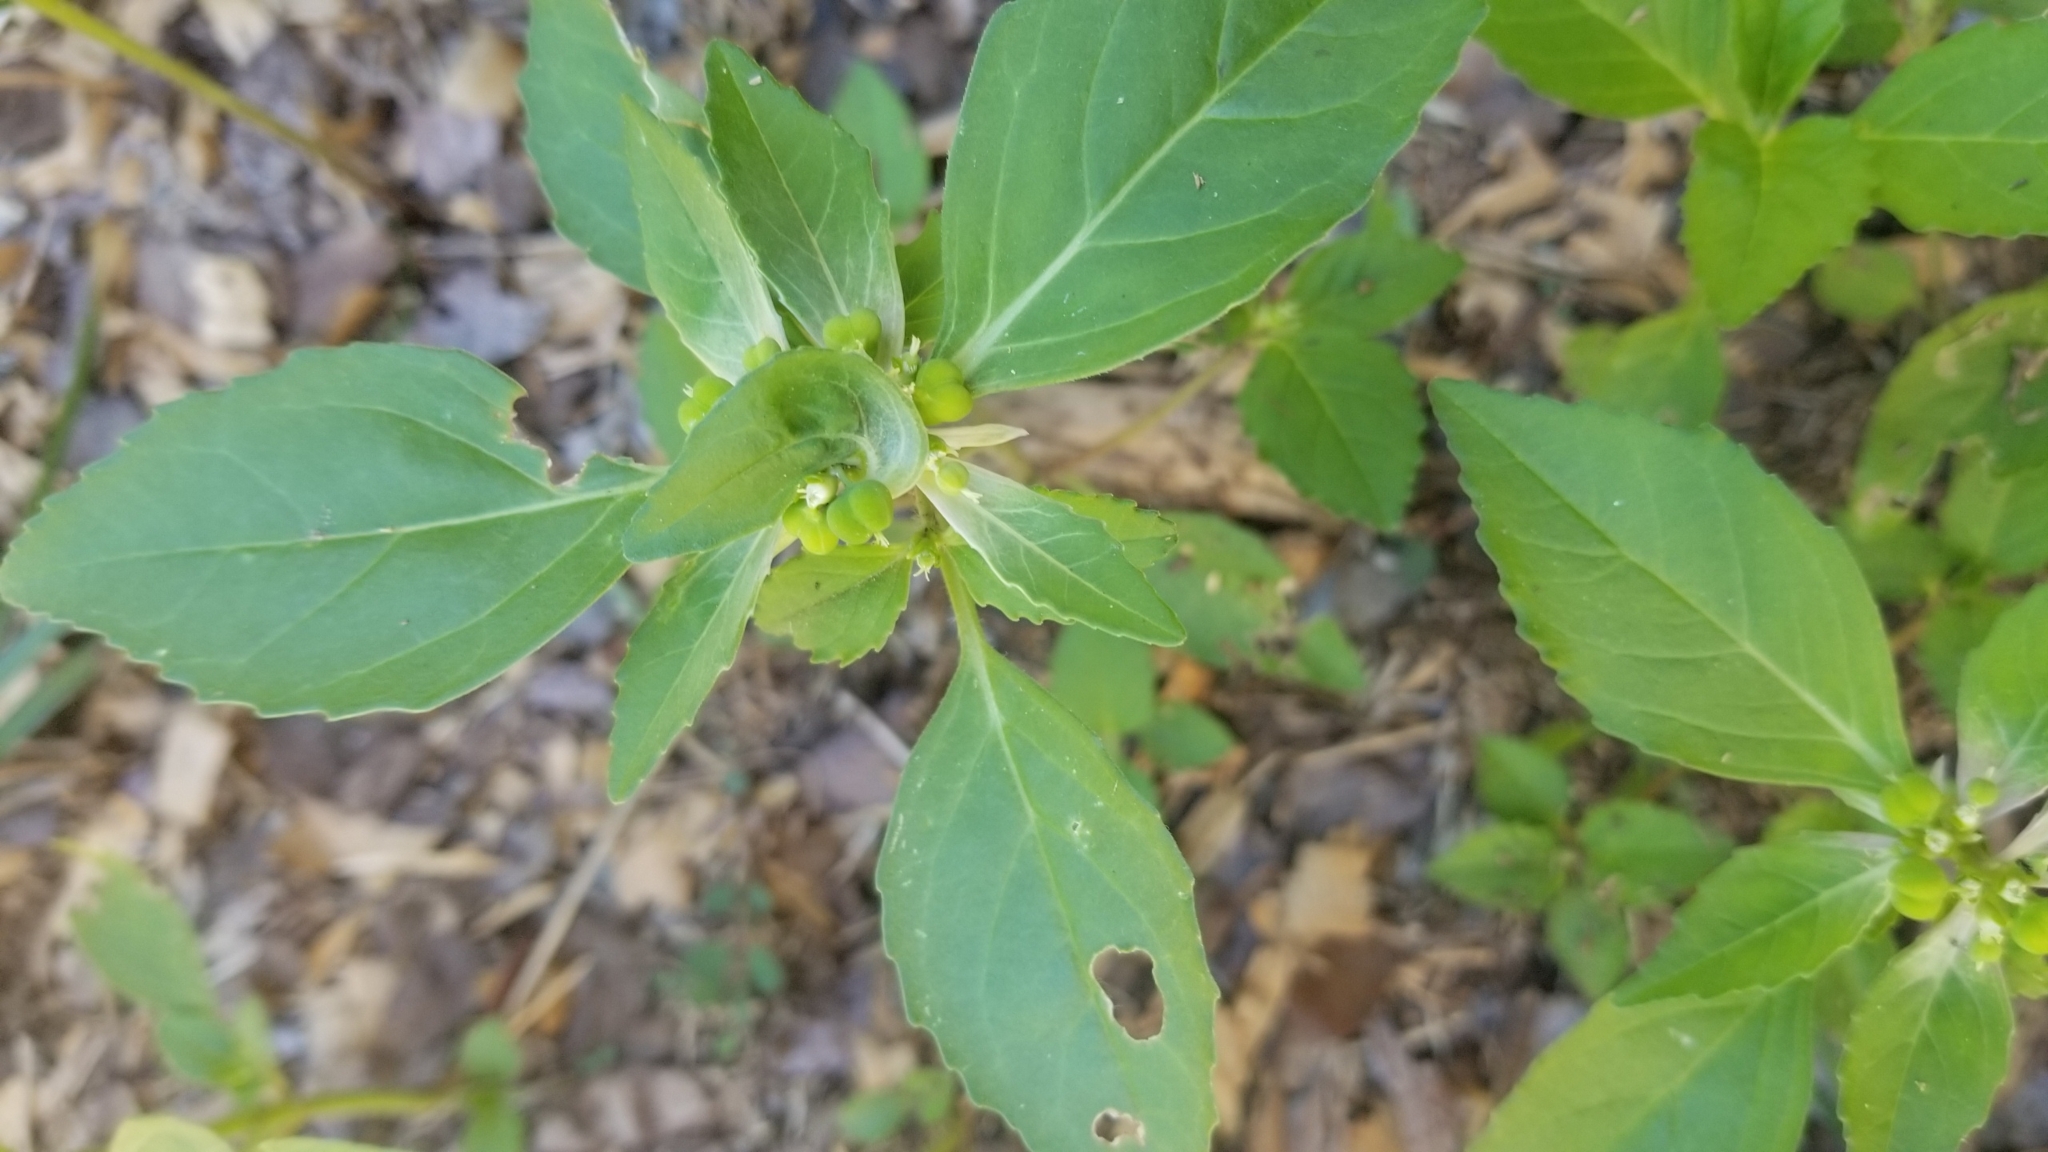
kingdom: Plantae
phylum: Tracheophyta
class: Magnoliopsida
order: Malpighiales
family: Euphorbiaceae
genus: Euphorbia
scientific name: Euphorbia dentata
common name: Dentate spurge
